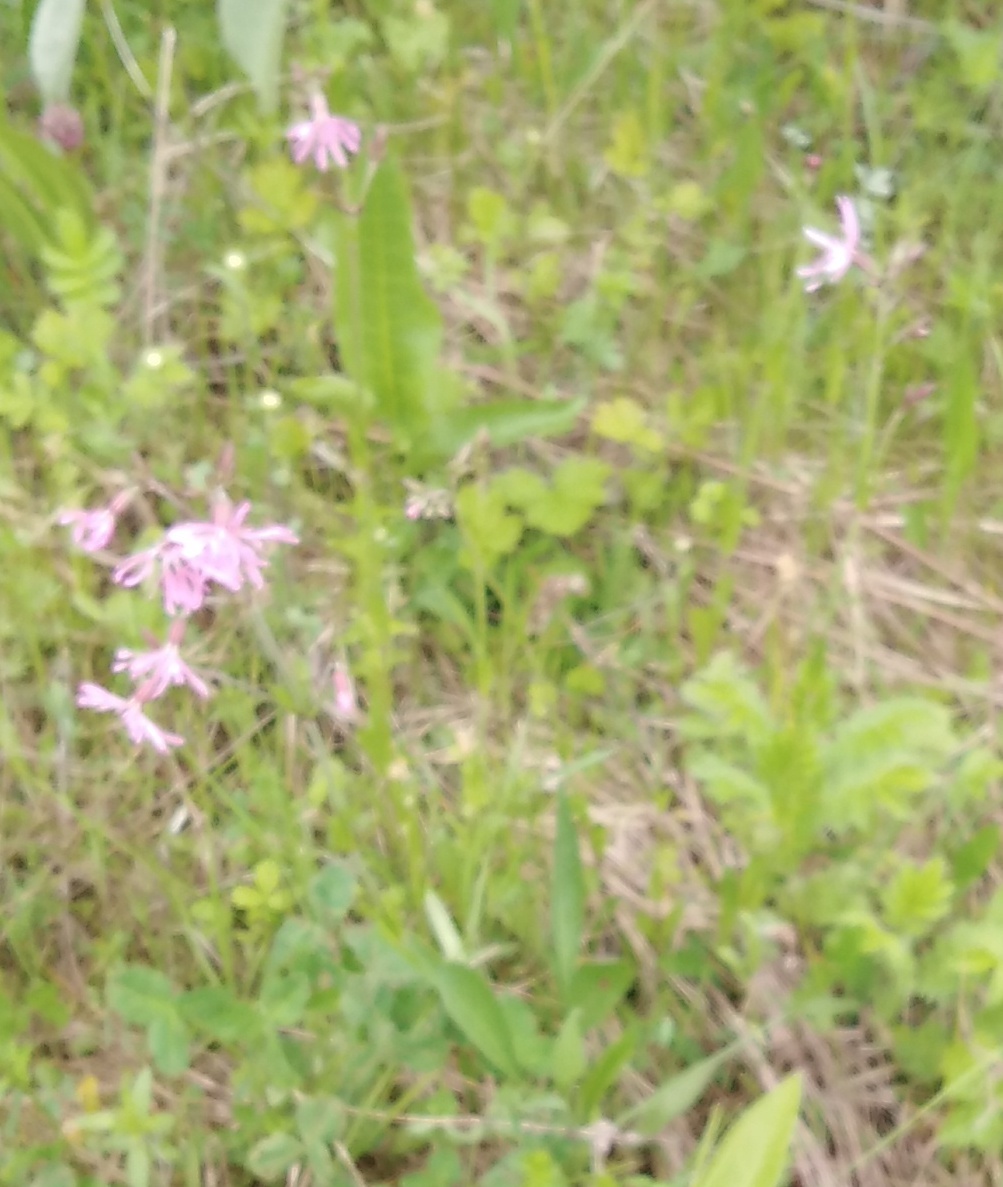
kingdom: Plantae
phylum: Tracheophyta
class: Magnoliopsida
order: Caryophyllales
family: Caryophyllaceae
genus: Silene
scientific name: Silene flos-cuculi
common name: Ragged-robin
